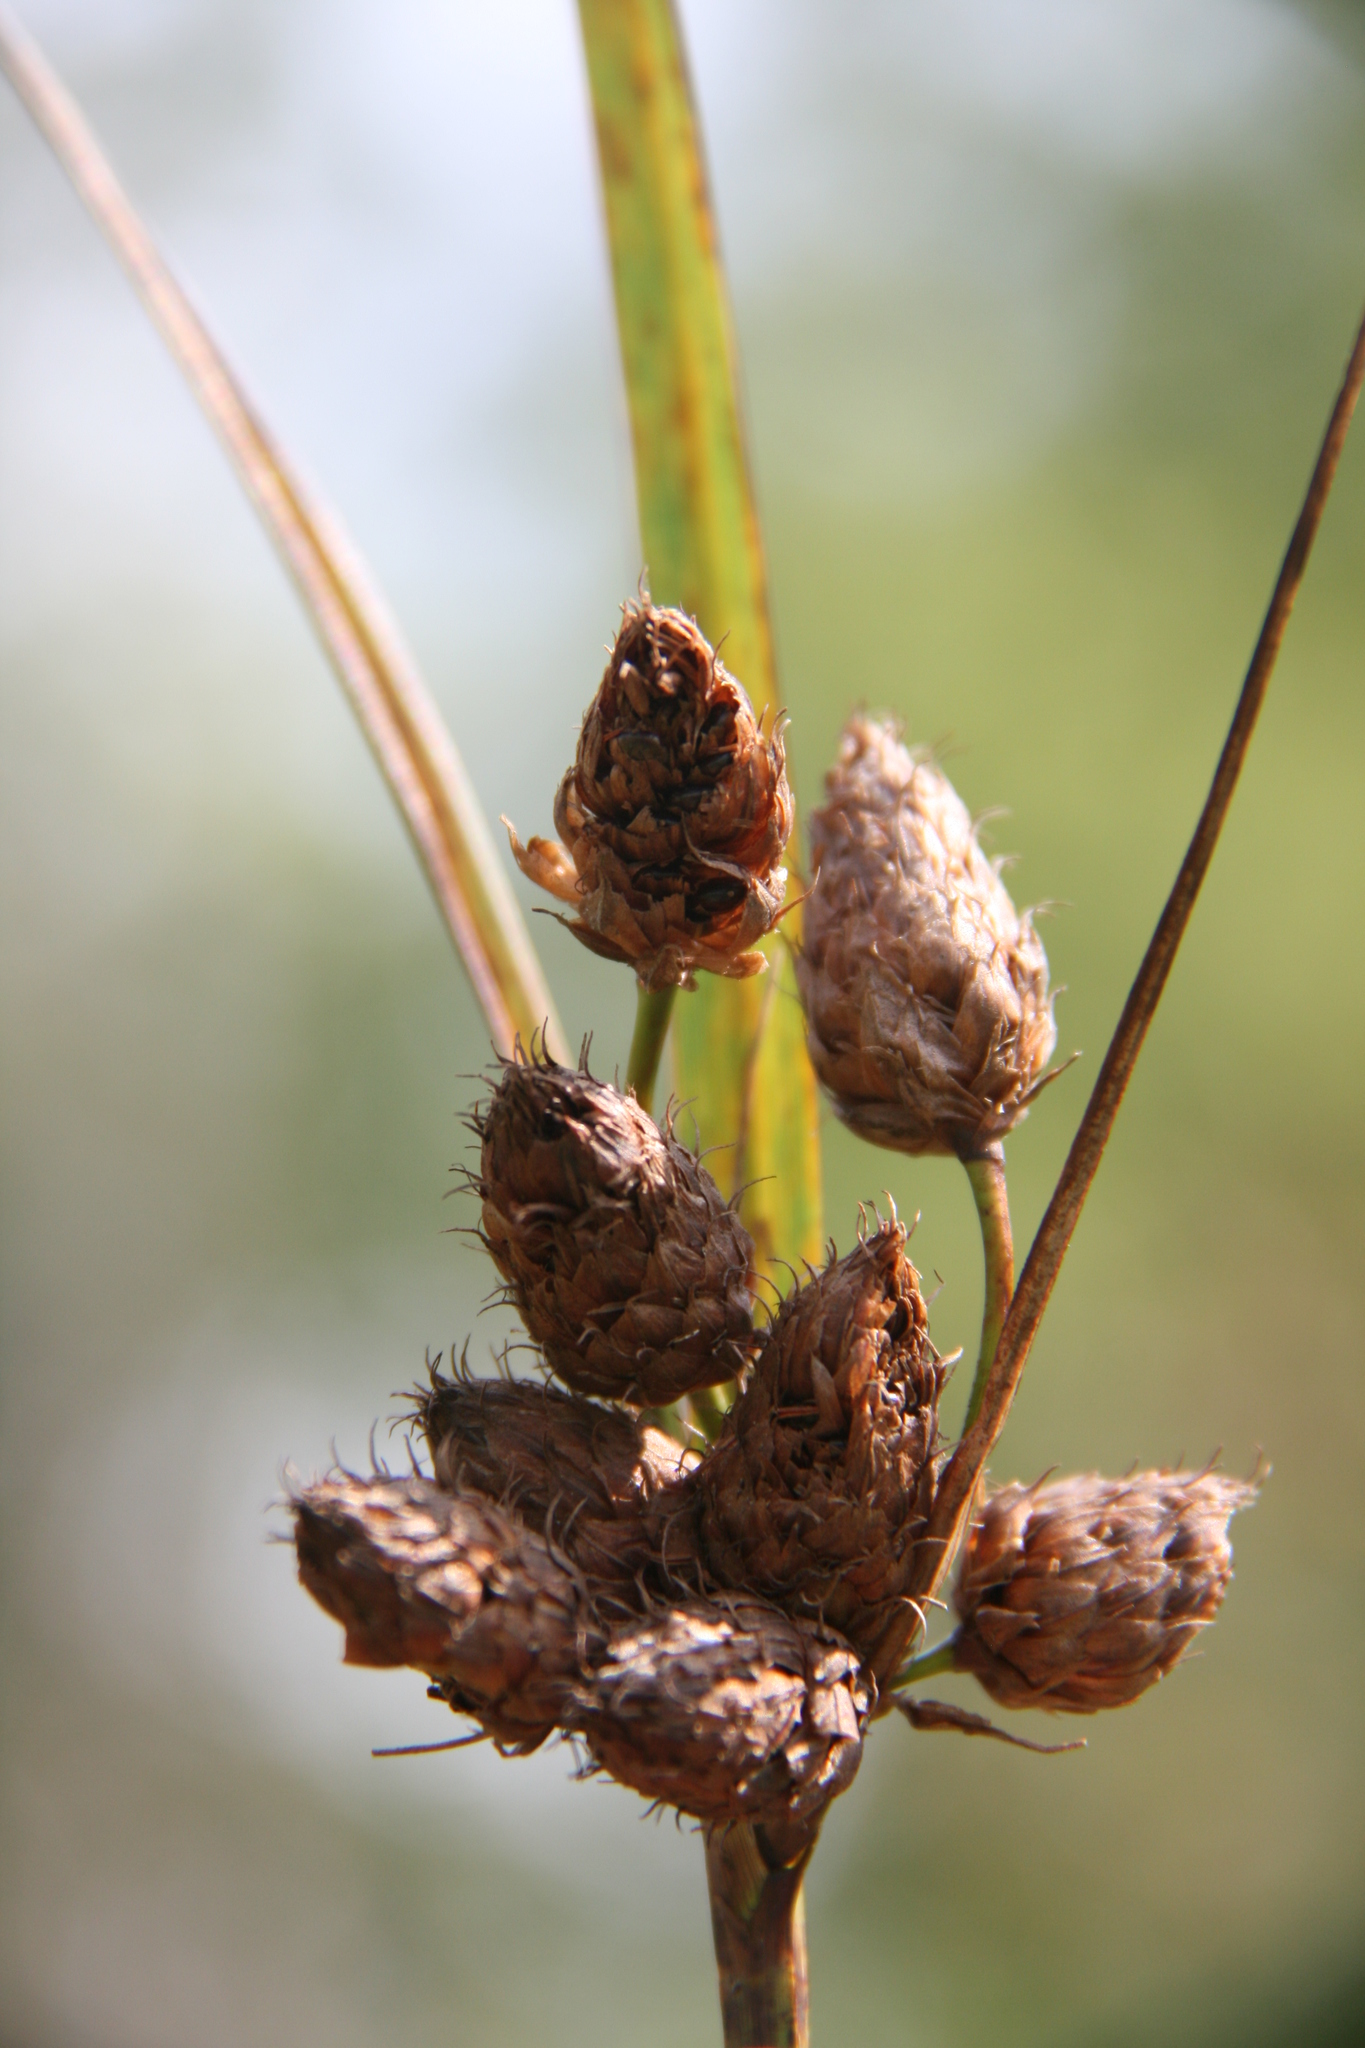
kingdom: Plantae
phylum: Tracheophyta
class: Liliopsida
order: Poales
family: Cyperaceae
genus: Bolboschoenus
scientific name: Bolboschoenus robustus
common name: Seacoast bulrush
